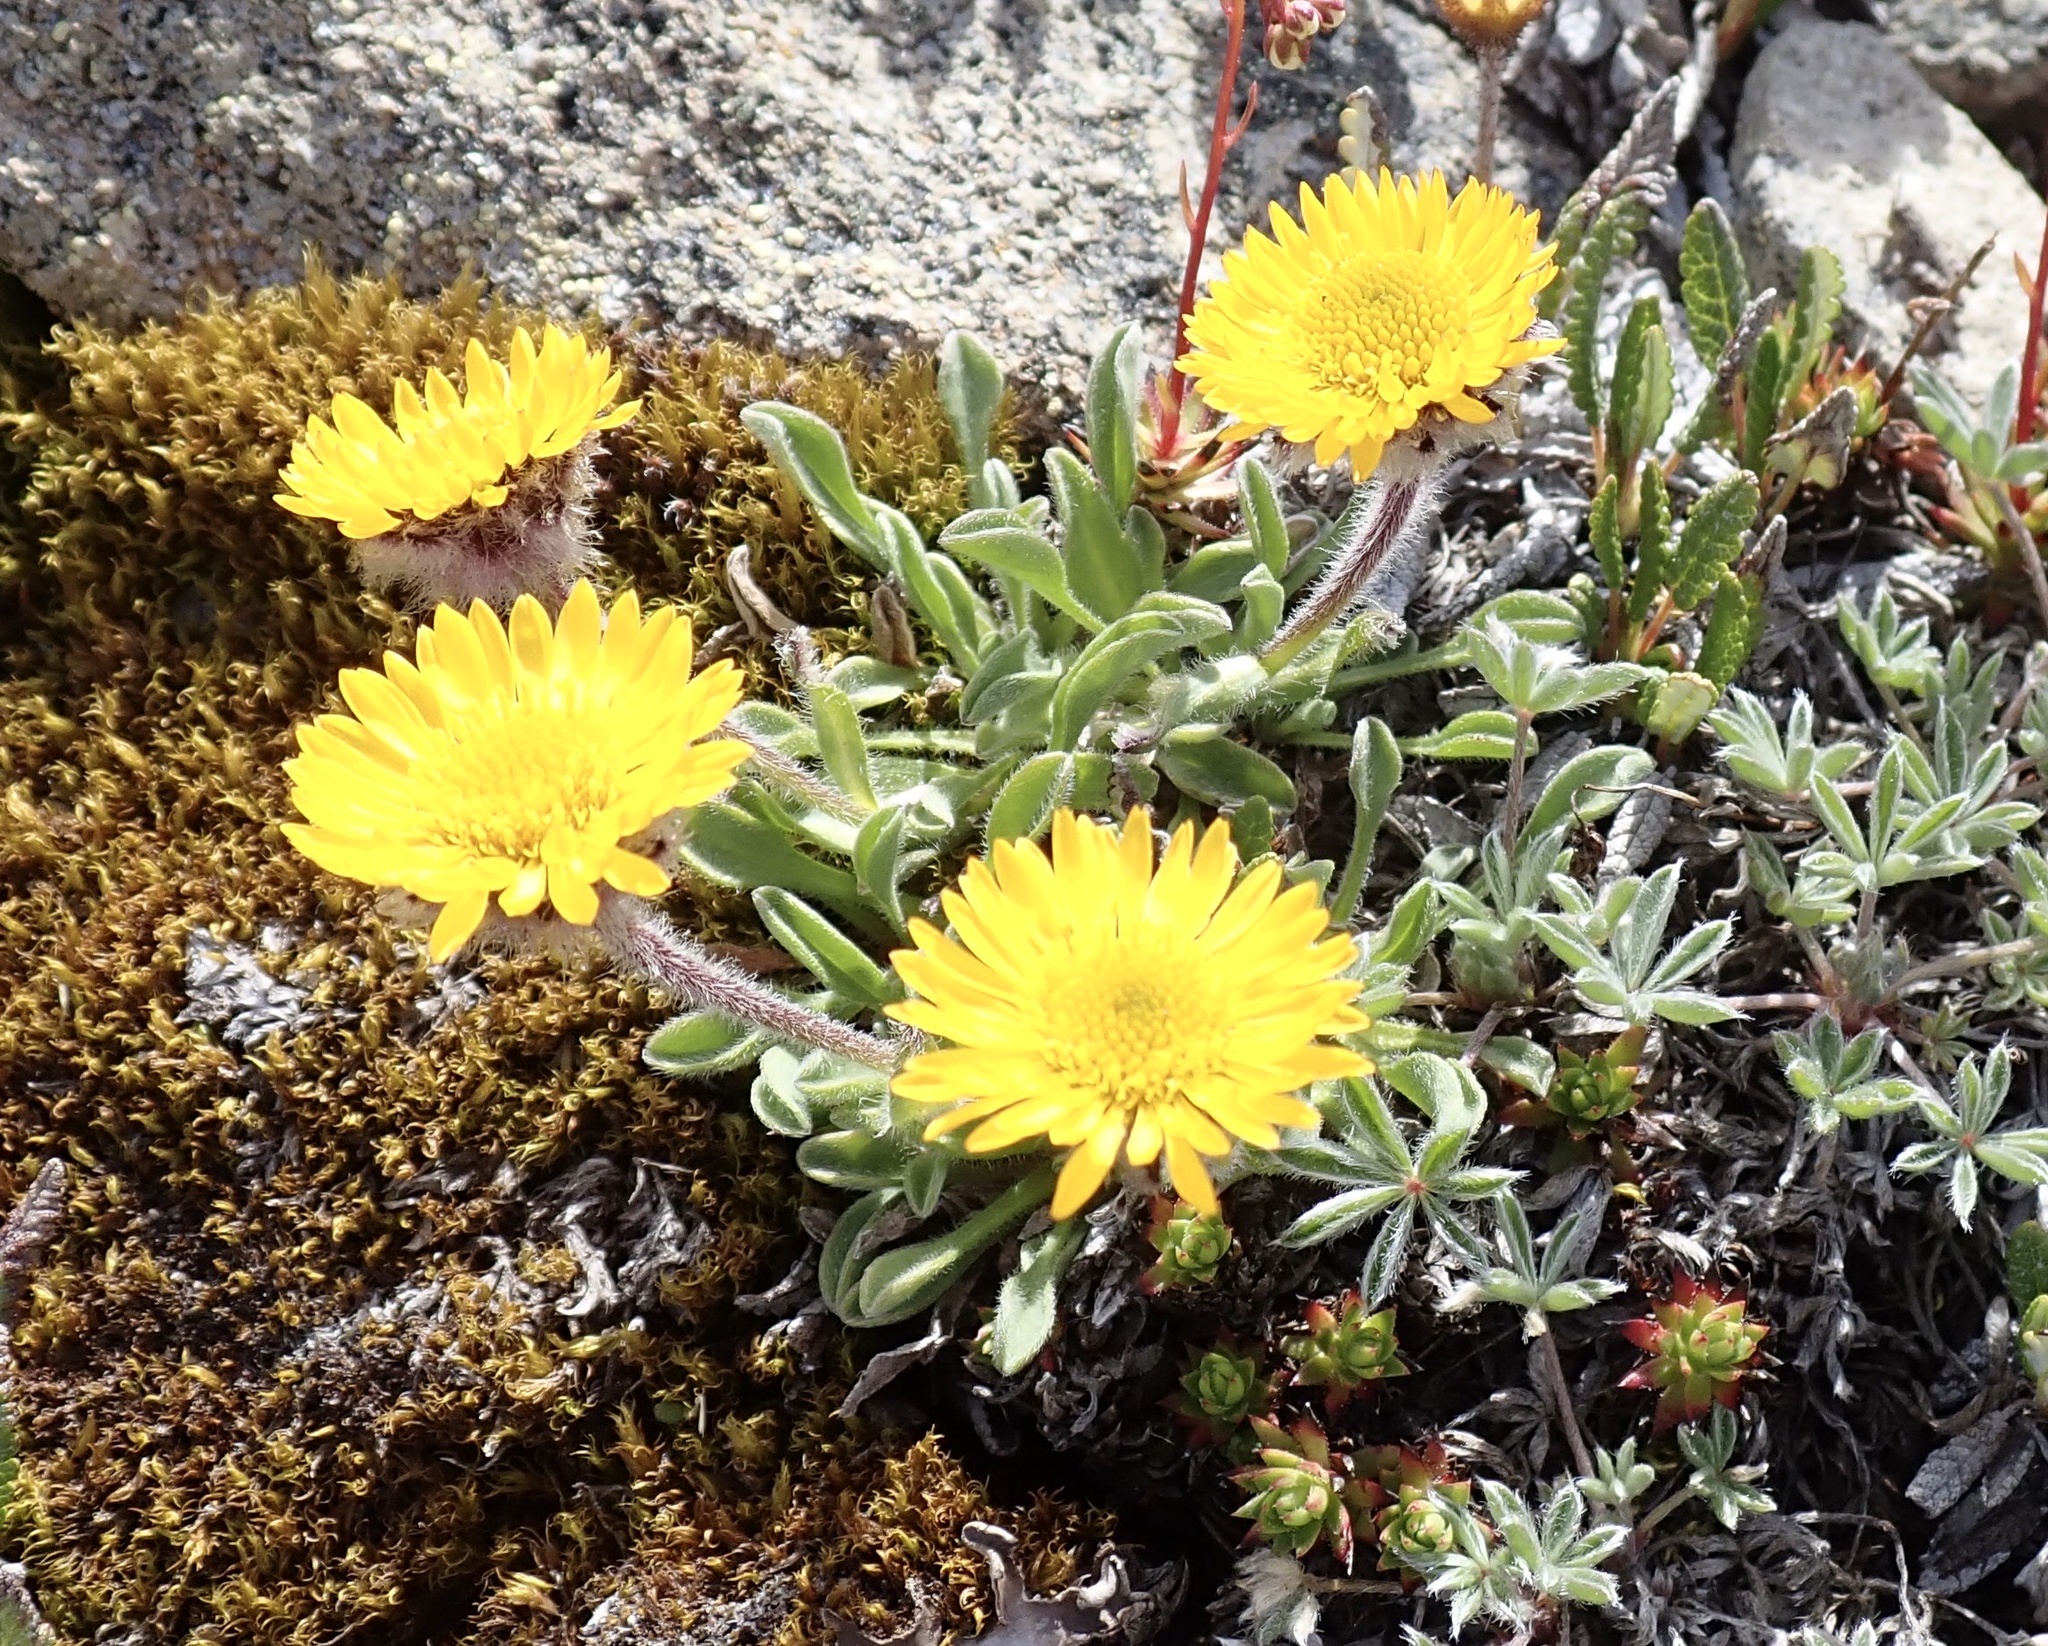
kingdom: Plantae
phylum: Tracheophyta
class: Magnoliopsida
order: Asterales
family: Asteraceae
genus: Erigeron
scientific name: Erigeron aureus
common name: Alpine yellow fleabane
